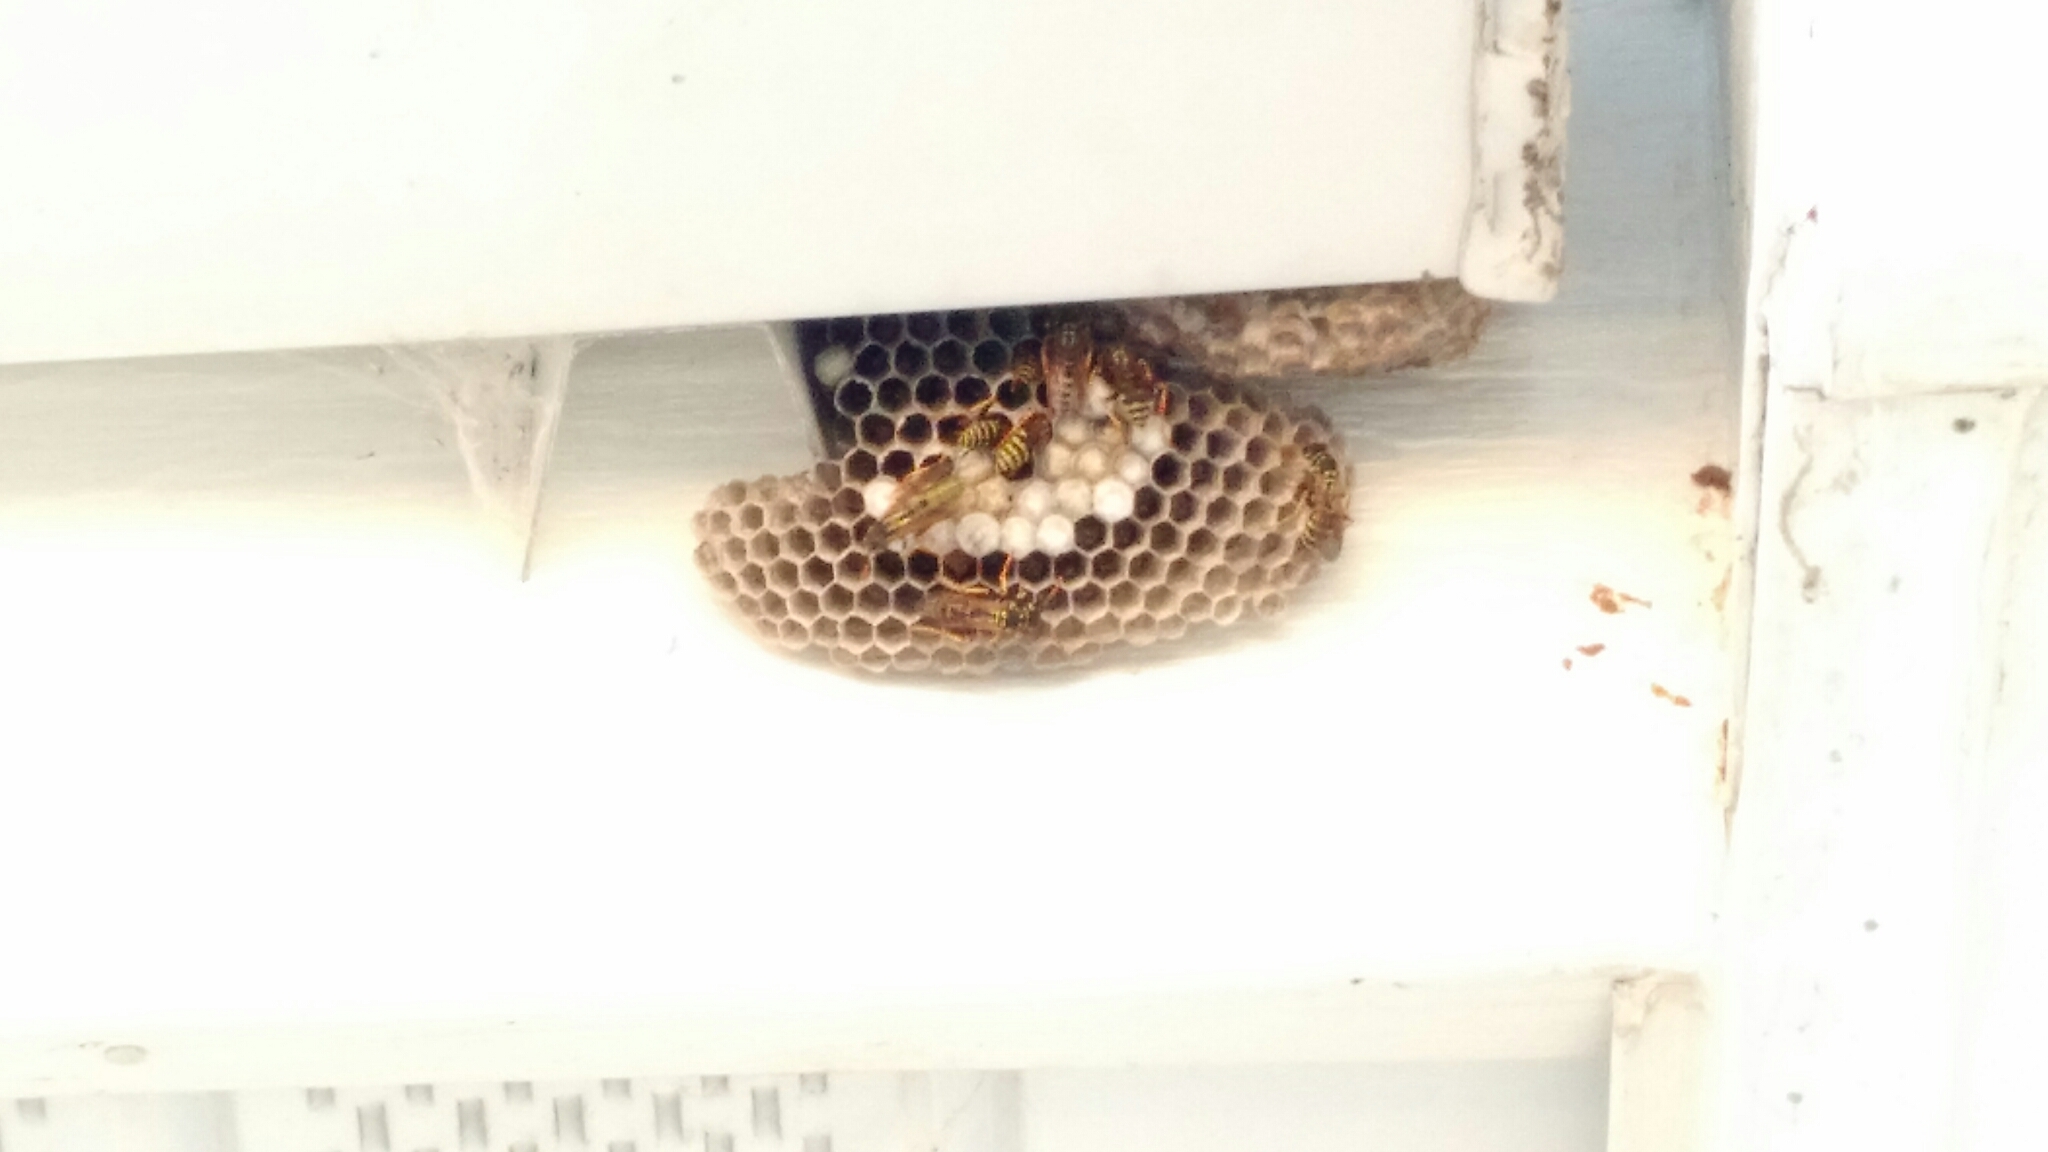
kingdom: Animalia
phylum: Arthropoda
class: Insecta
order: Hymenoptera
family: Eumenidae
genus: Polistes
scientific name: Polistes dominula
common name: Paper wasp
